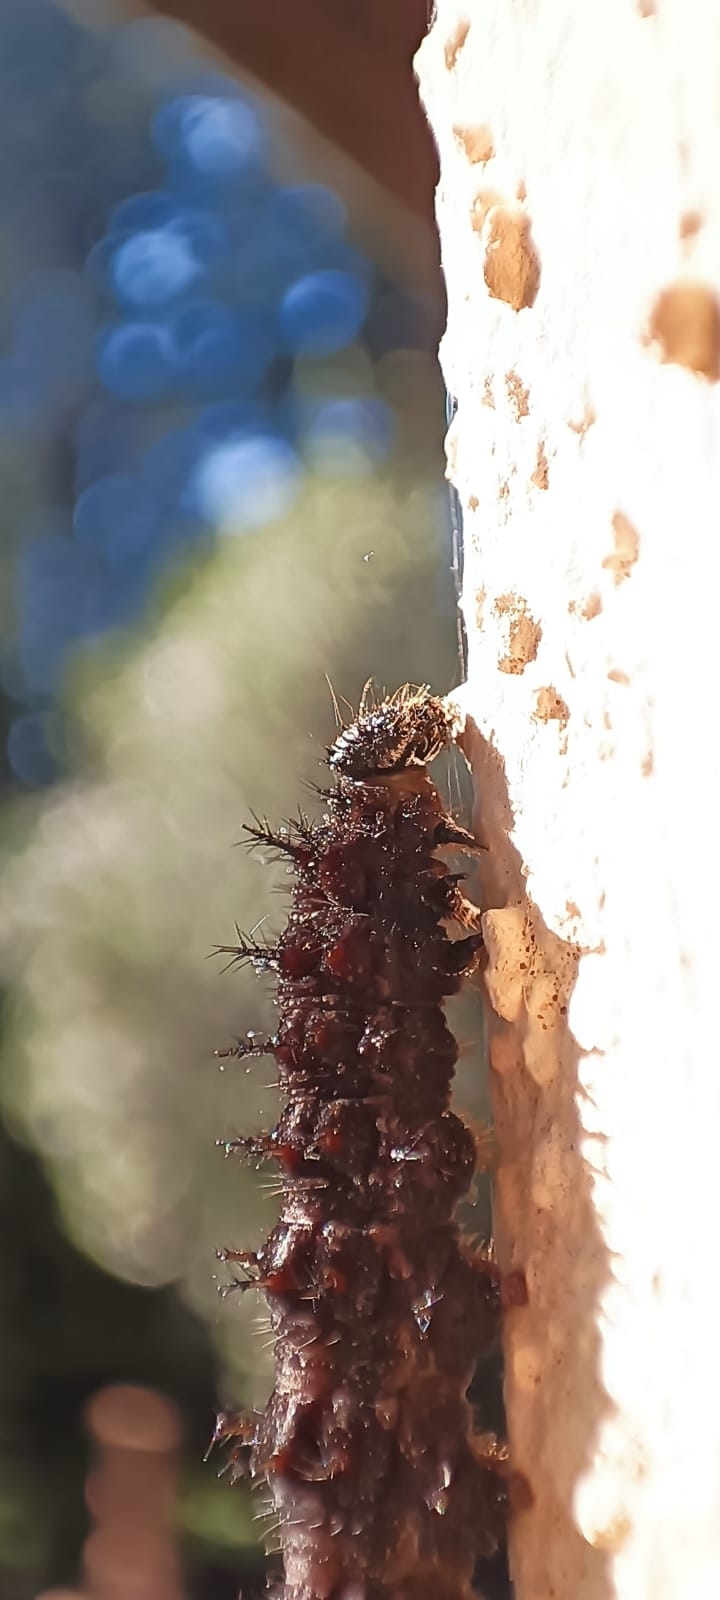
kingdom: Animalia
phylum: Arthropoda
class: Insecta
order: Lepidoptera
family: Nymphalidae
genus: Vanessa
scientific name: Vanessa atalanta
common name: Red admiral
